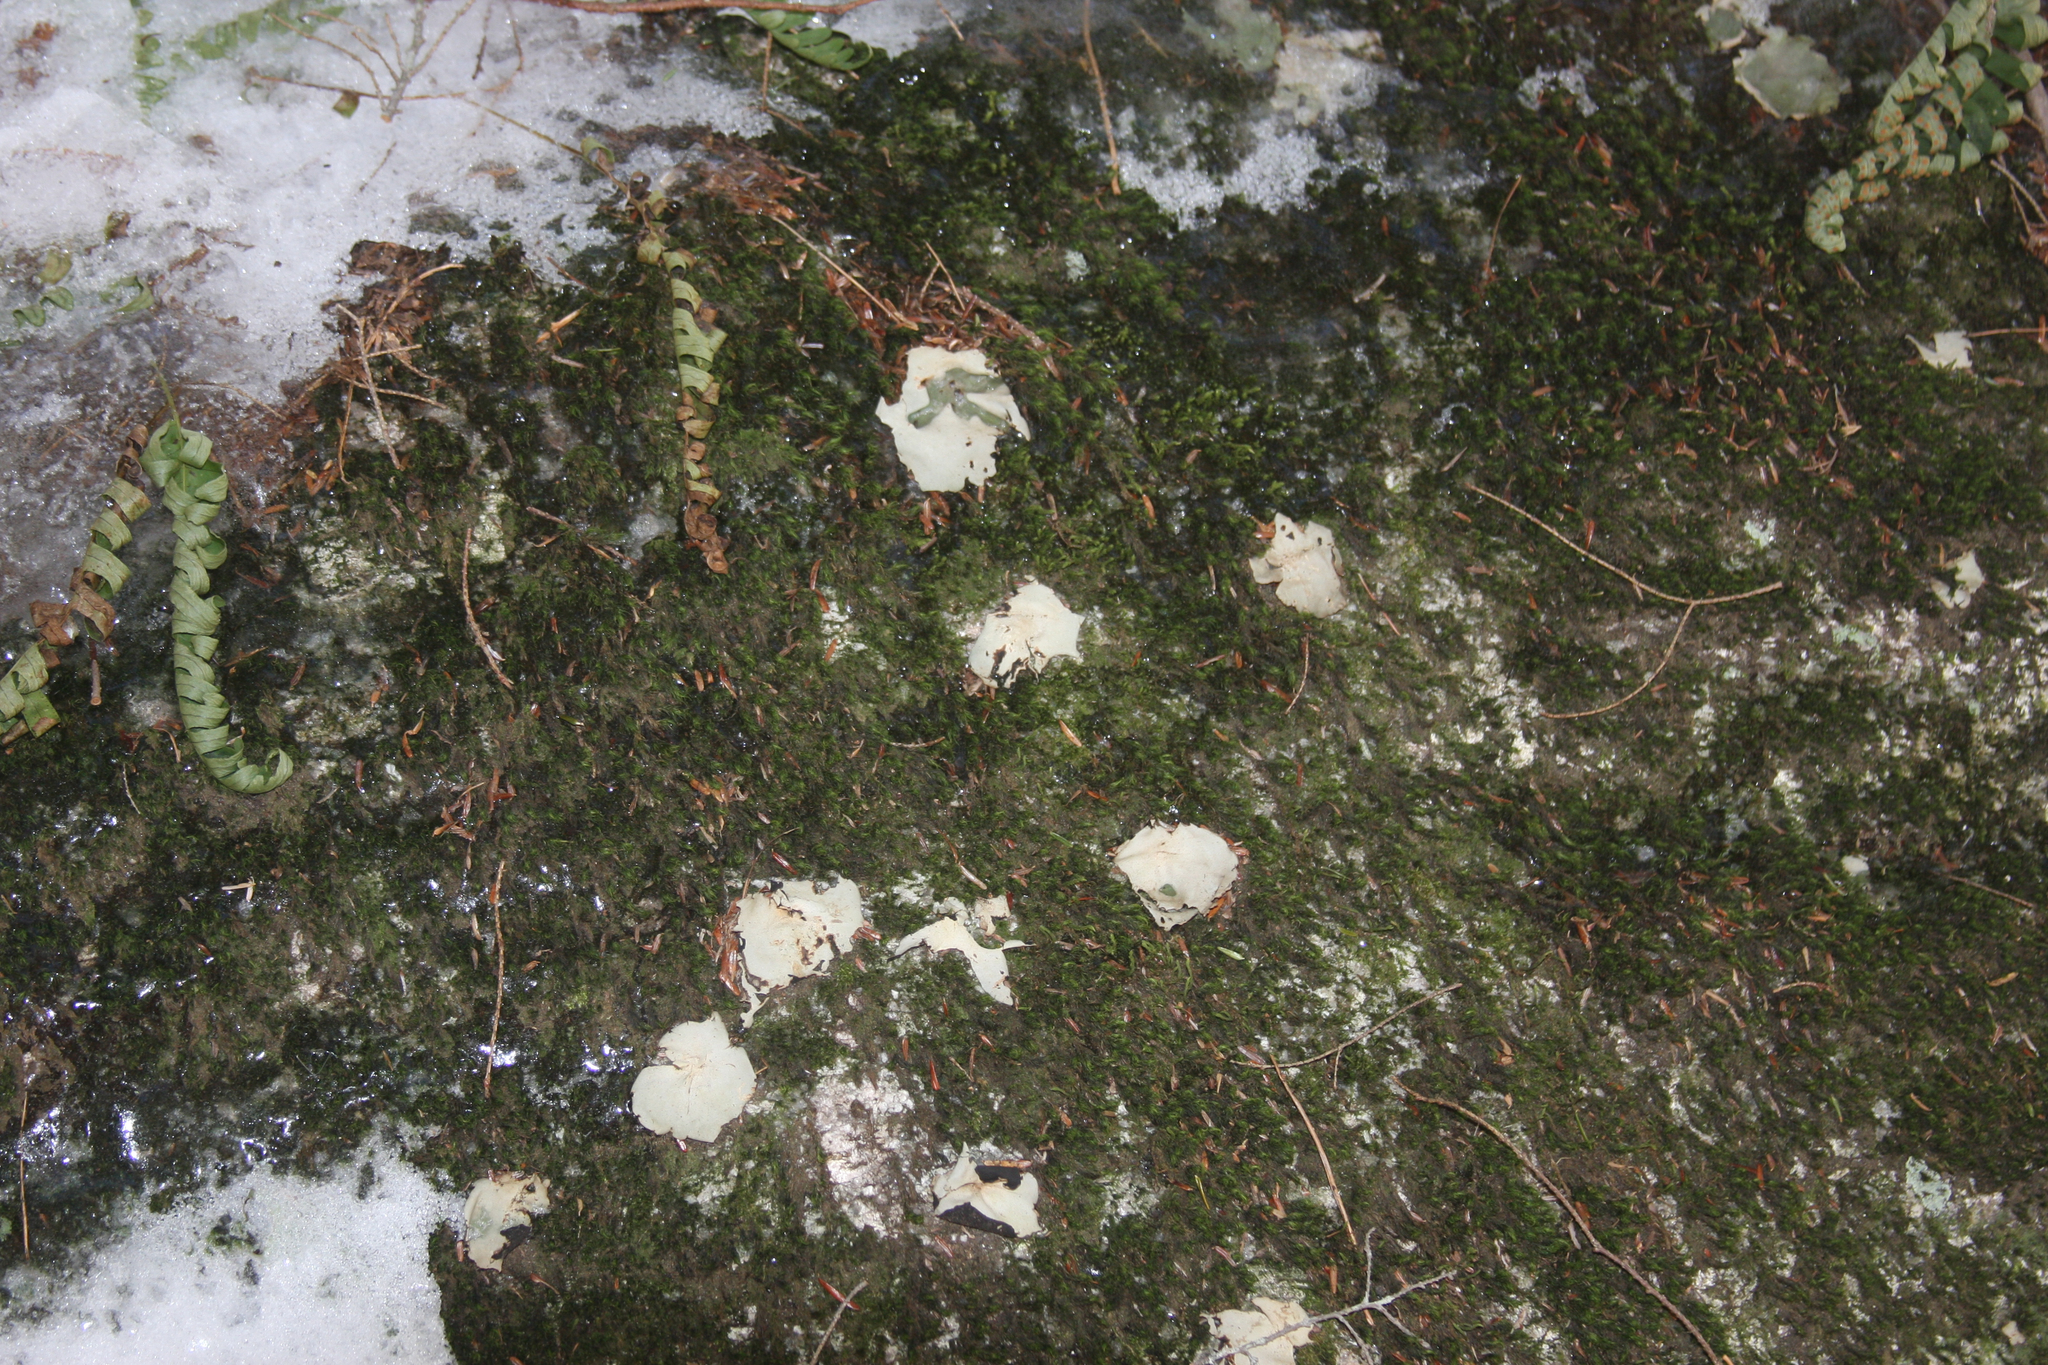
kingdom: Fungi
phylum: Ascomycota
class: Lecanoromycetes
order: Umbilicariales
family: Umbilicariaceae
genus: Umbilicaria
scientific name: Umbilicaria mammulata
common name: Smooth rock tripe
